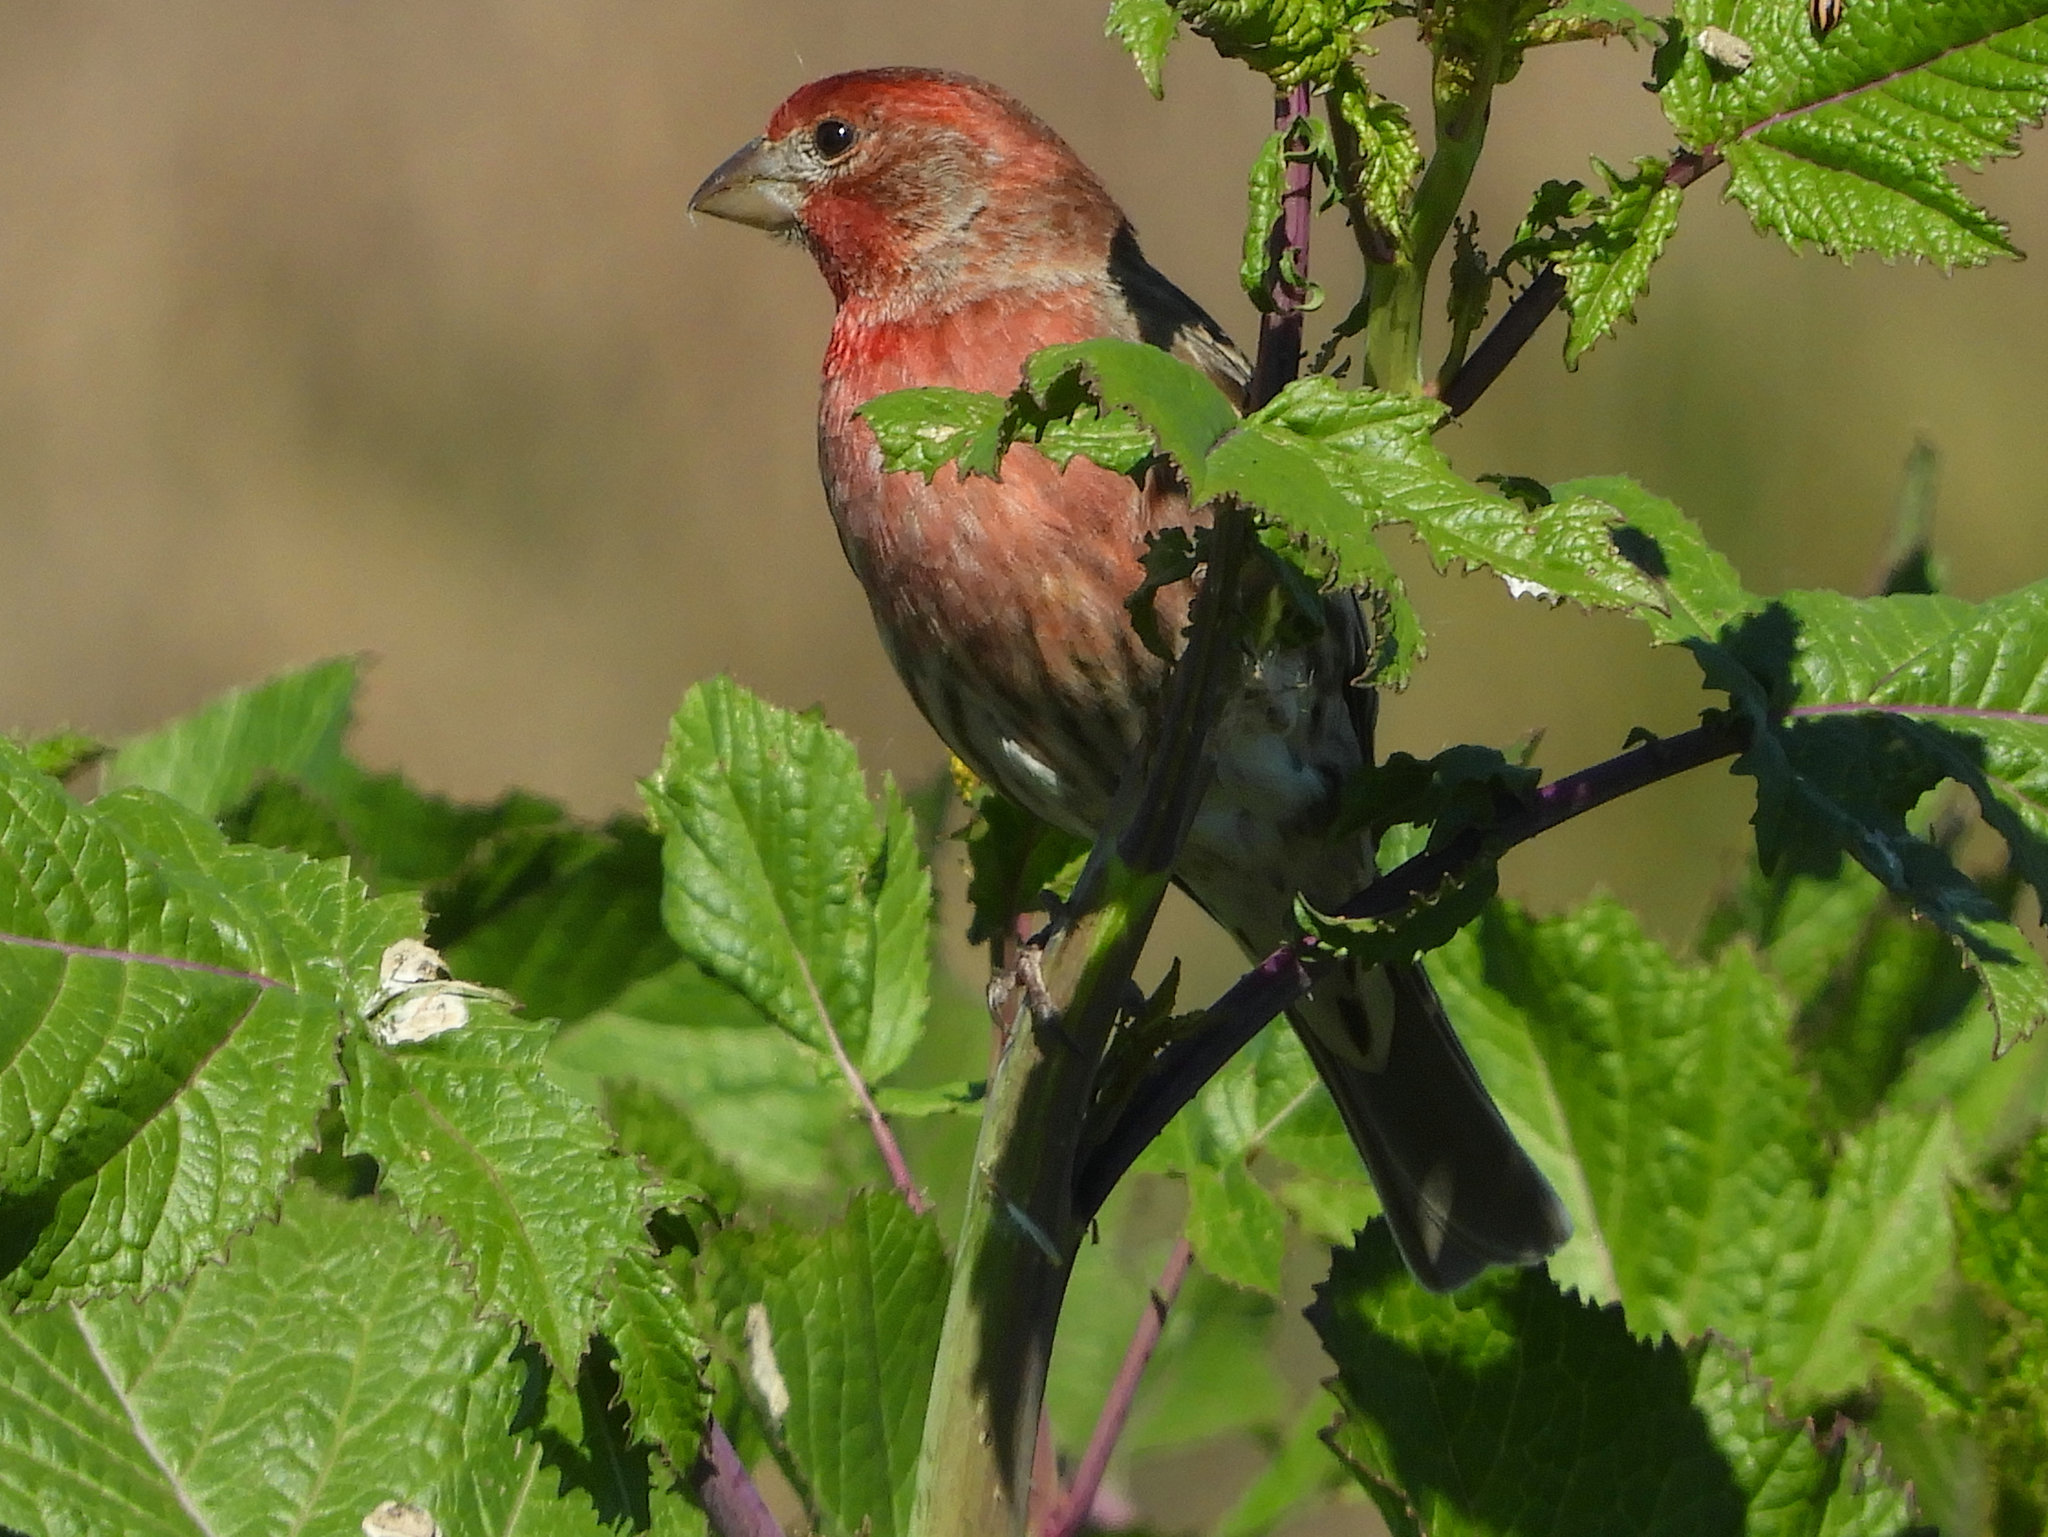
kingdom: Animalia
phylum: Chordata
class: Aves
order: Passeriformes
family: Fringillidae
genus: Haemorhous
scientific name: Haemorhous mexicanus
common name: House finch
